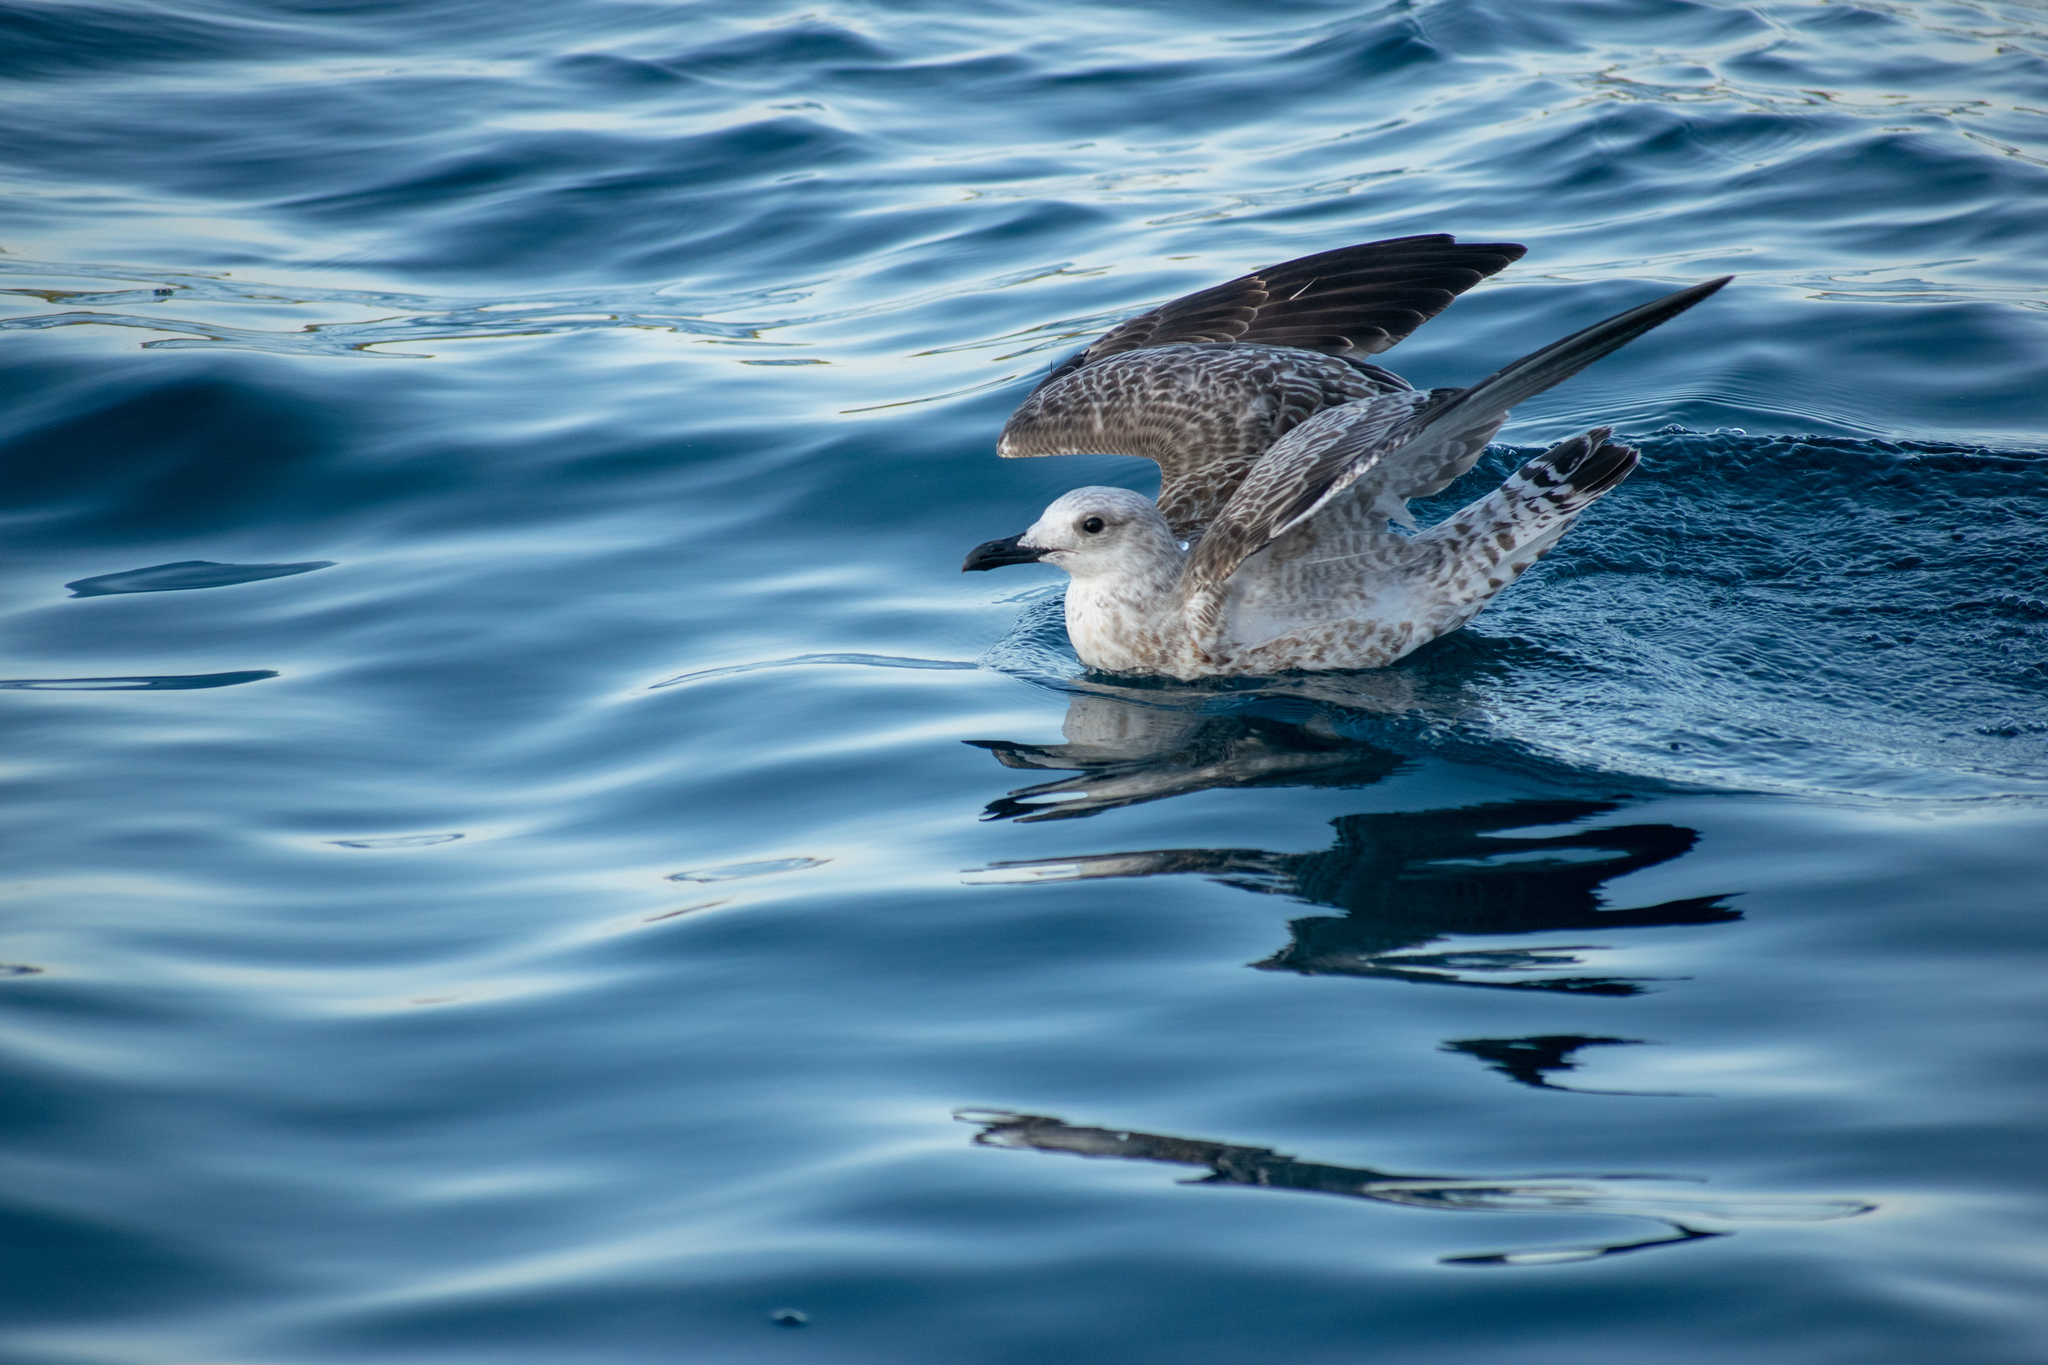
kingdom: Animalia
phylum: Chordata
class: Aves
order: Charadriiformes
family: Laridae
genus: Larus
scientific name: Larus michahellis
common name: Yellow-legged gull
